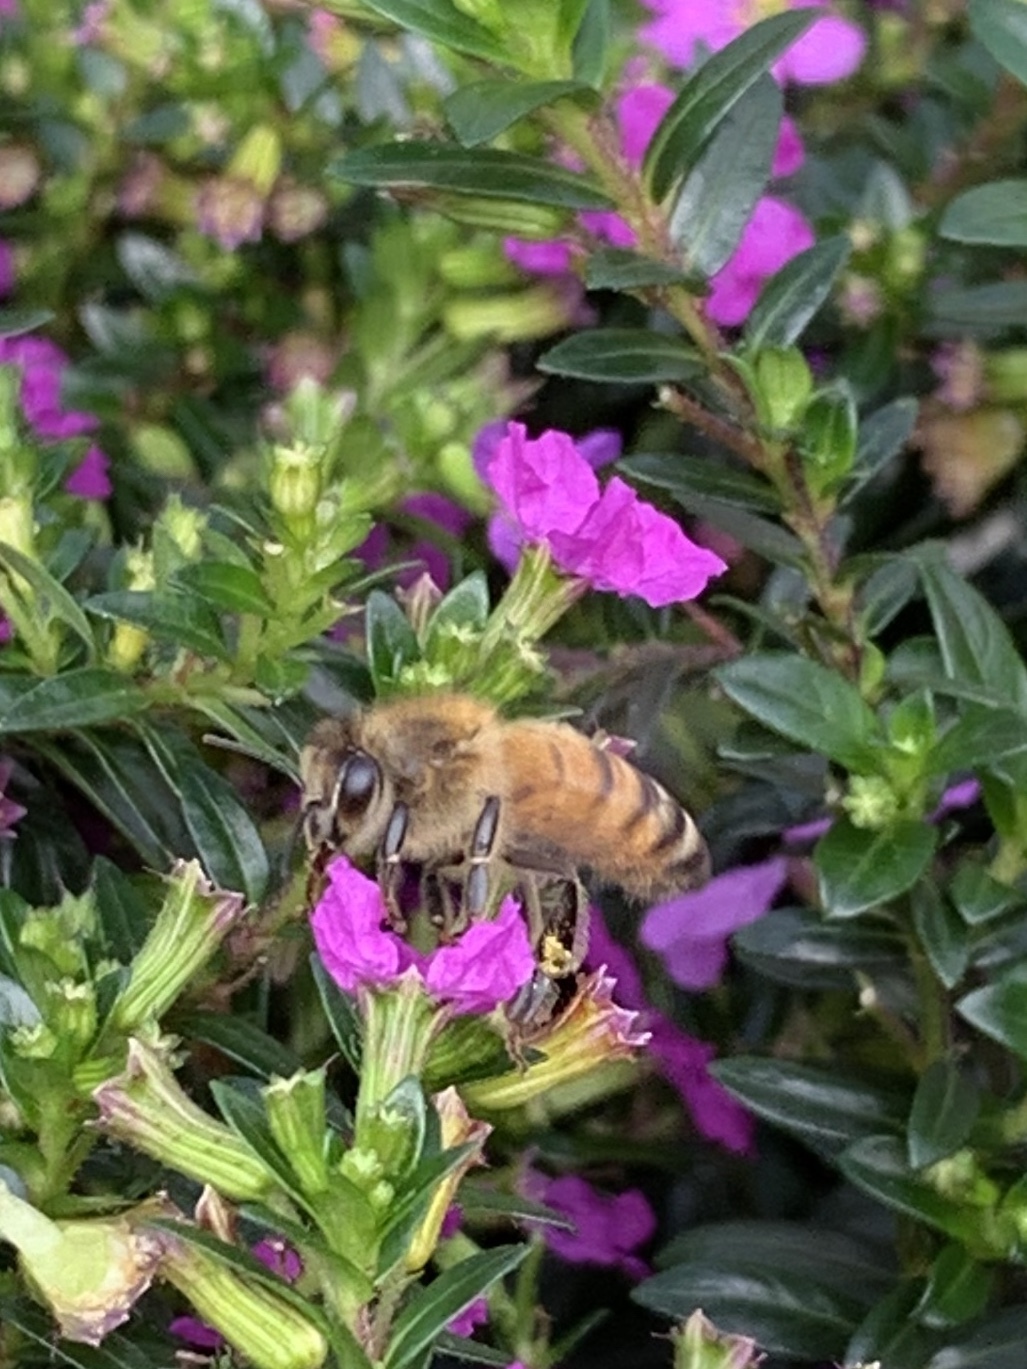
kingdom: Animalia
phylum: Arthropoda
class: Insecta
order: Hymenoptera
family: Apidae
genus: Apis
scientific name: Apis mellifera
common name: Honey bee
